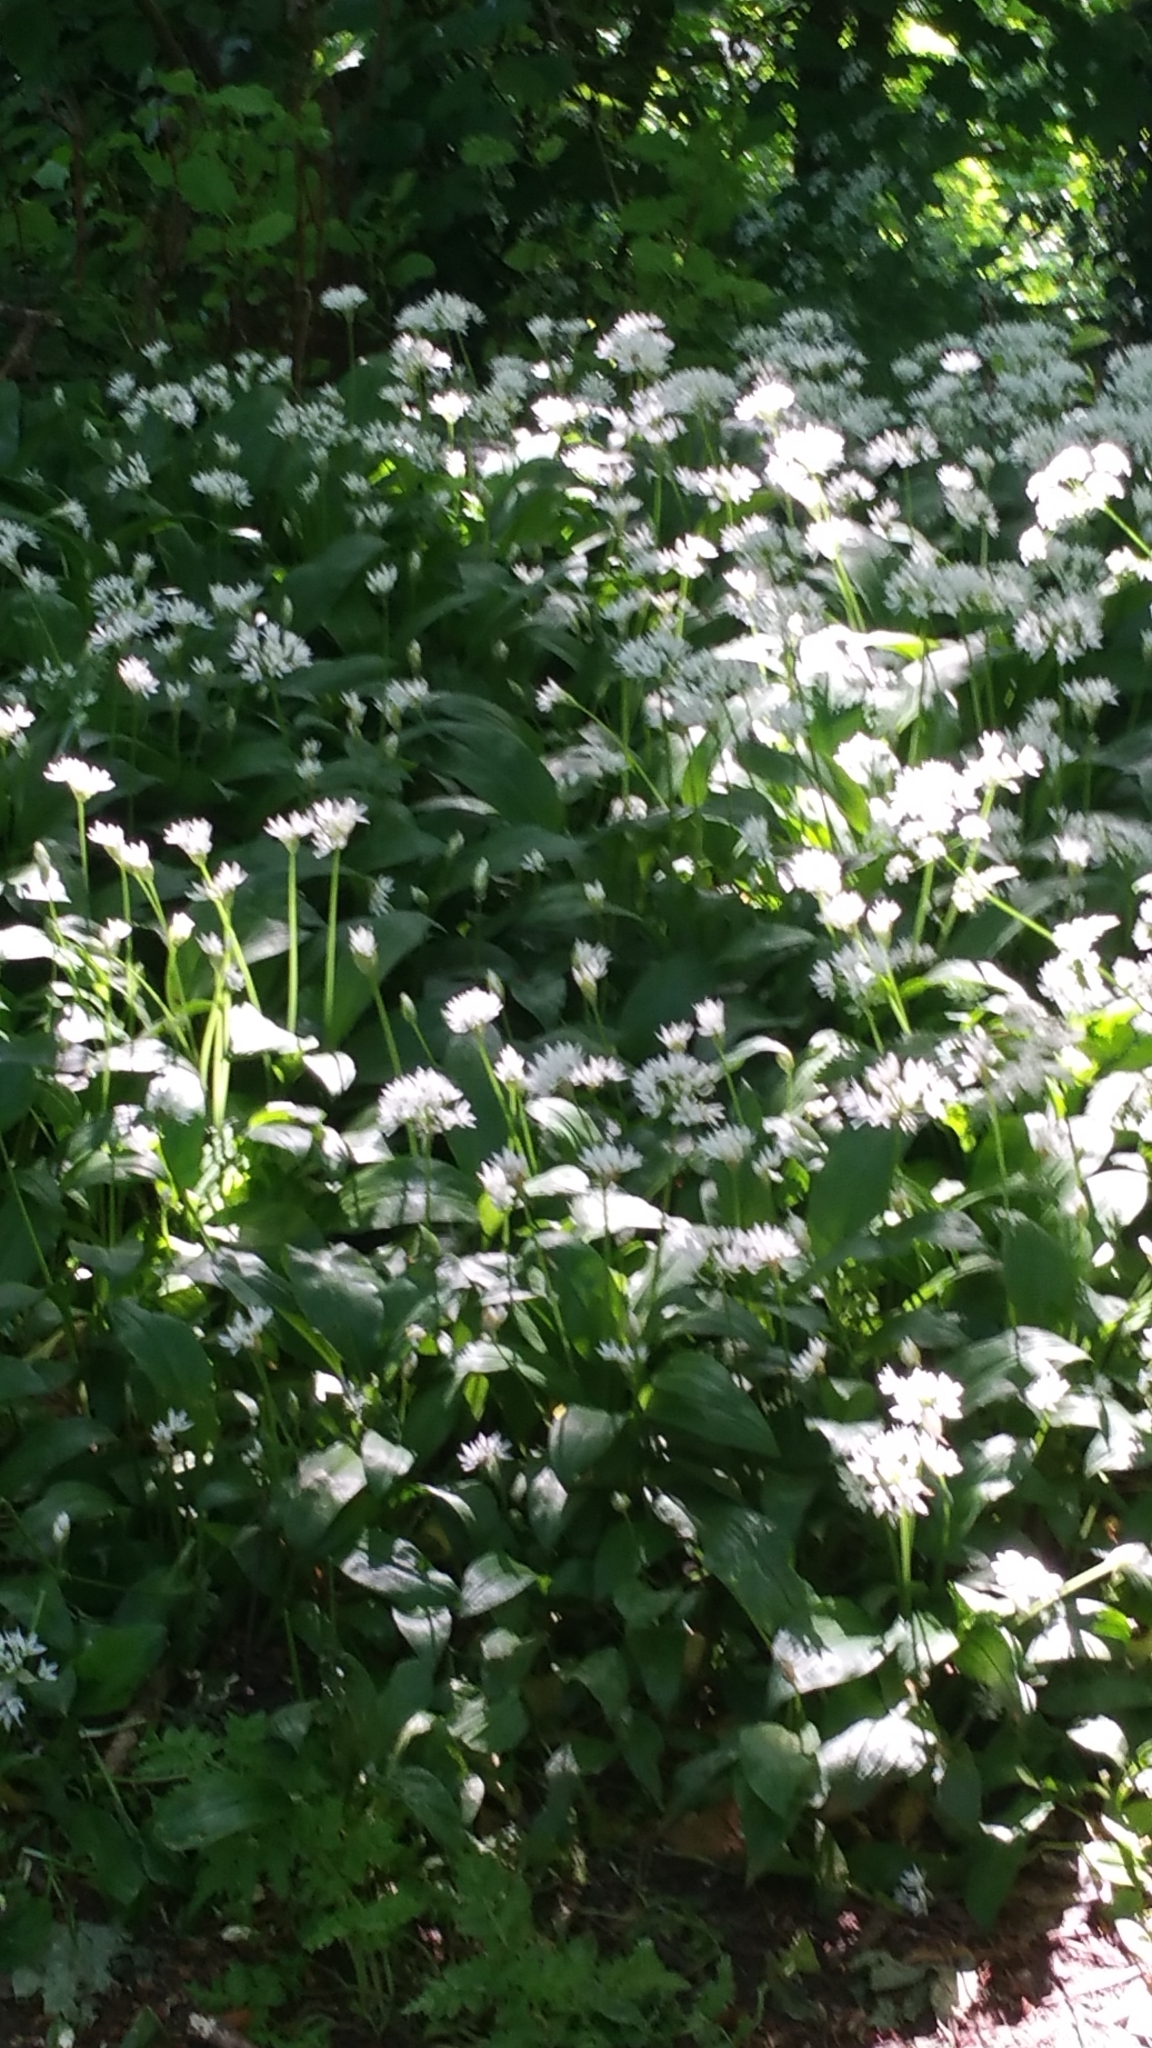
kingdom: Plantae
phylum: Tracheophyta
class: Liliopsida
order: Asparagales
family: Amaryllidaceae
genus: Allium
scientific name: Allium ursinum
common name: Ramsons
